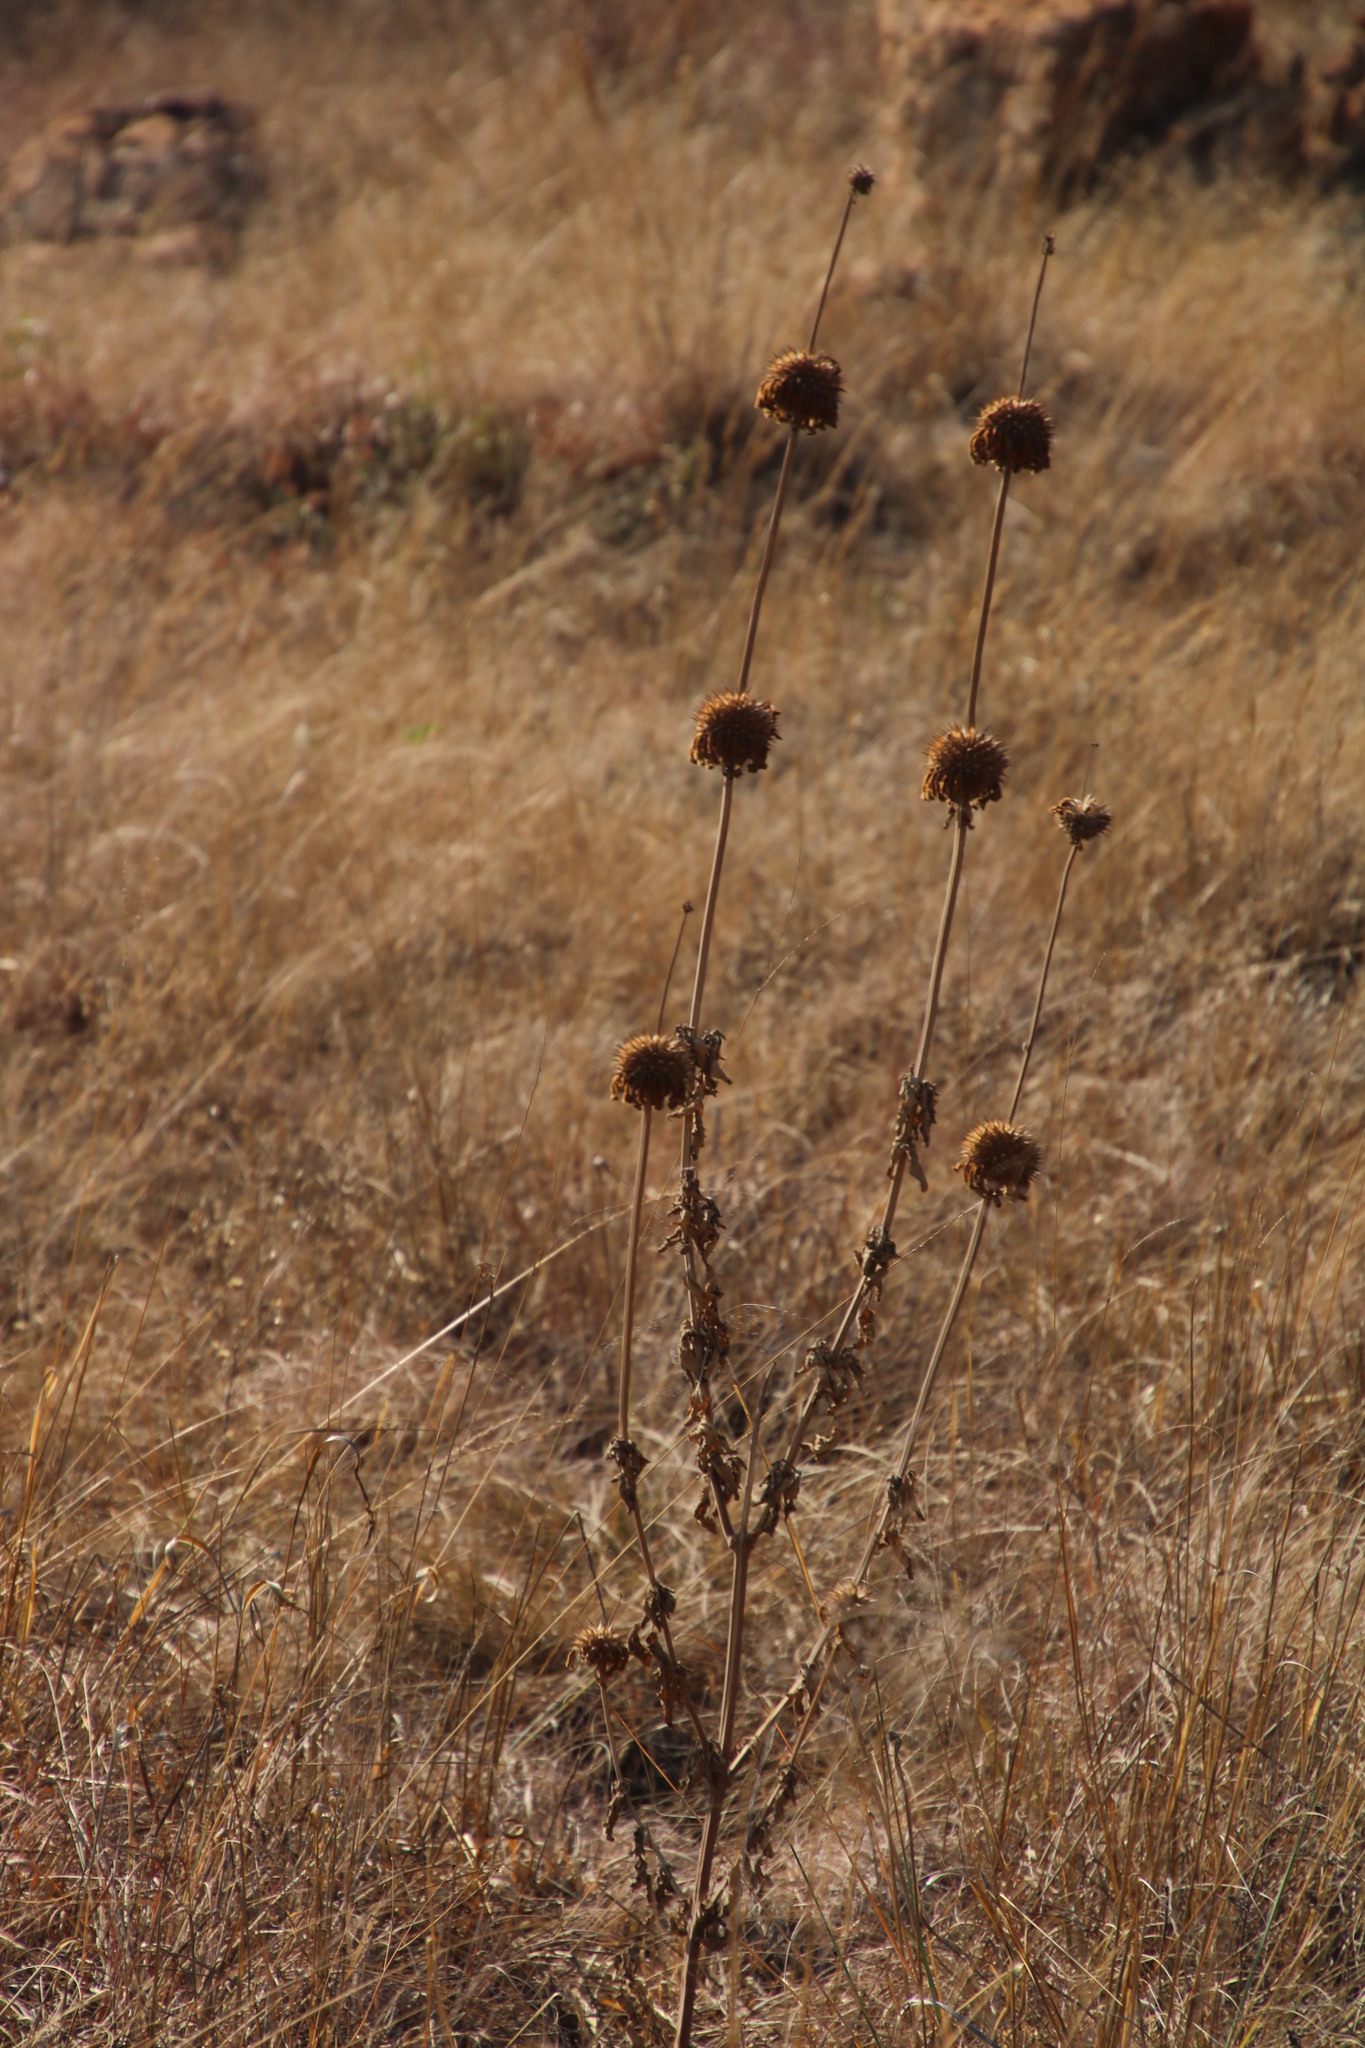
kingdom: Plantae
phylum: Tracheophyta
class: Magnoliopsida
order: Lamiales
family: Lamiaceae
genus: Leonotis
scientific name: Leonotis nepetifolia
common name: Christmas candlestick
